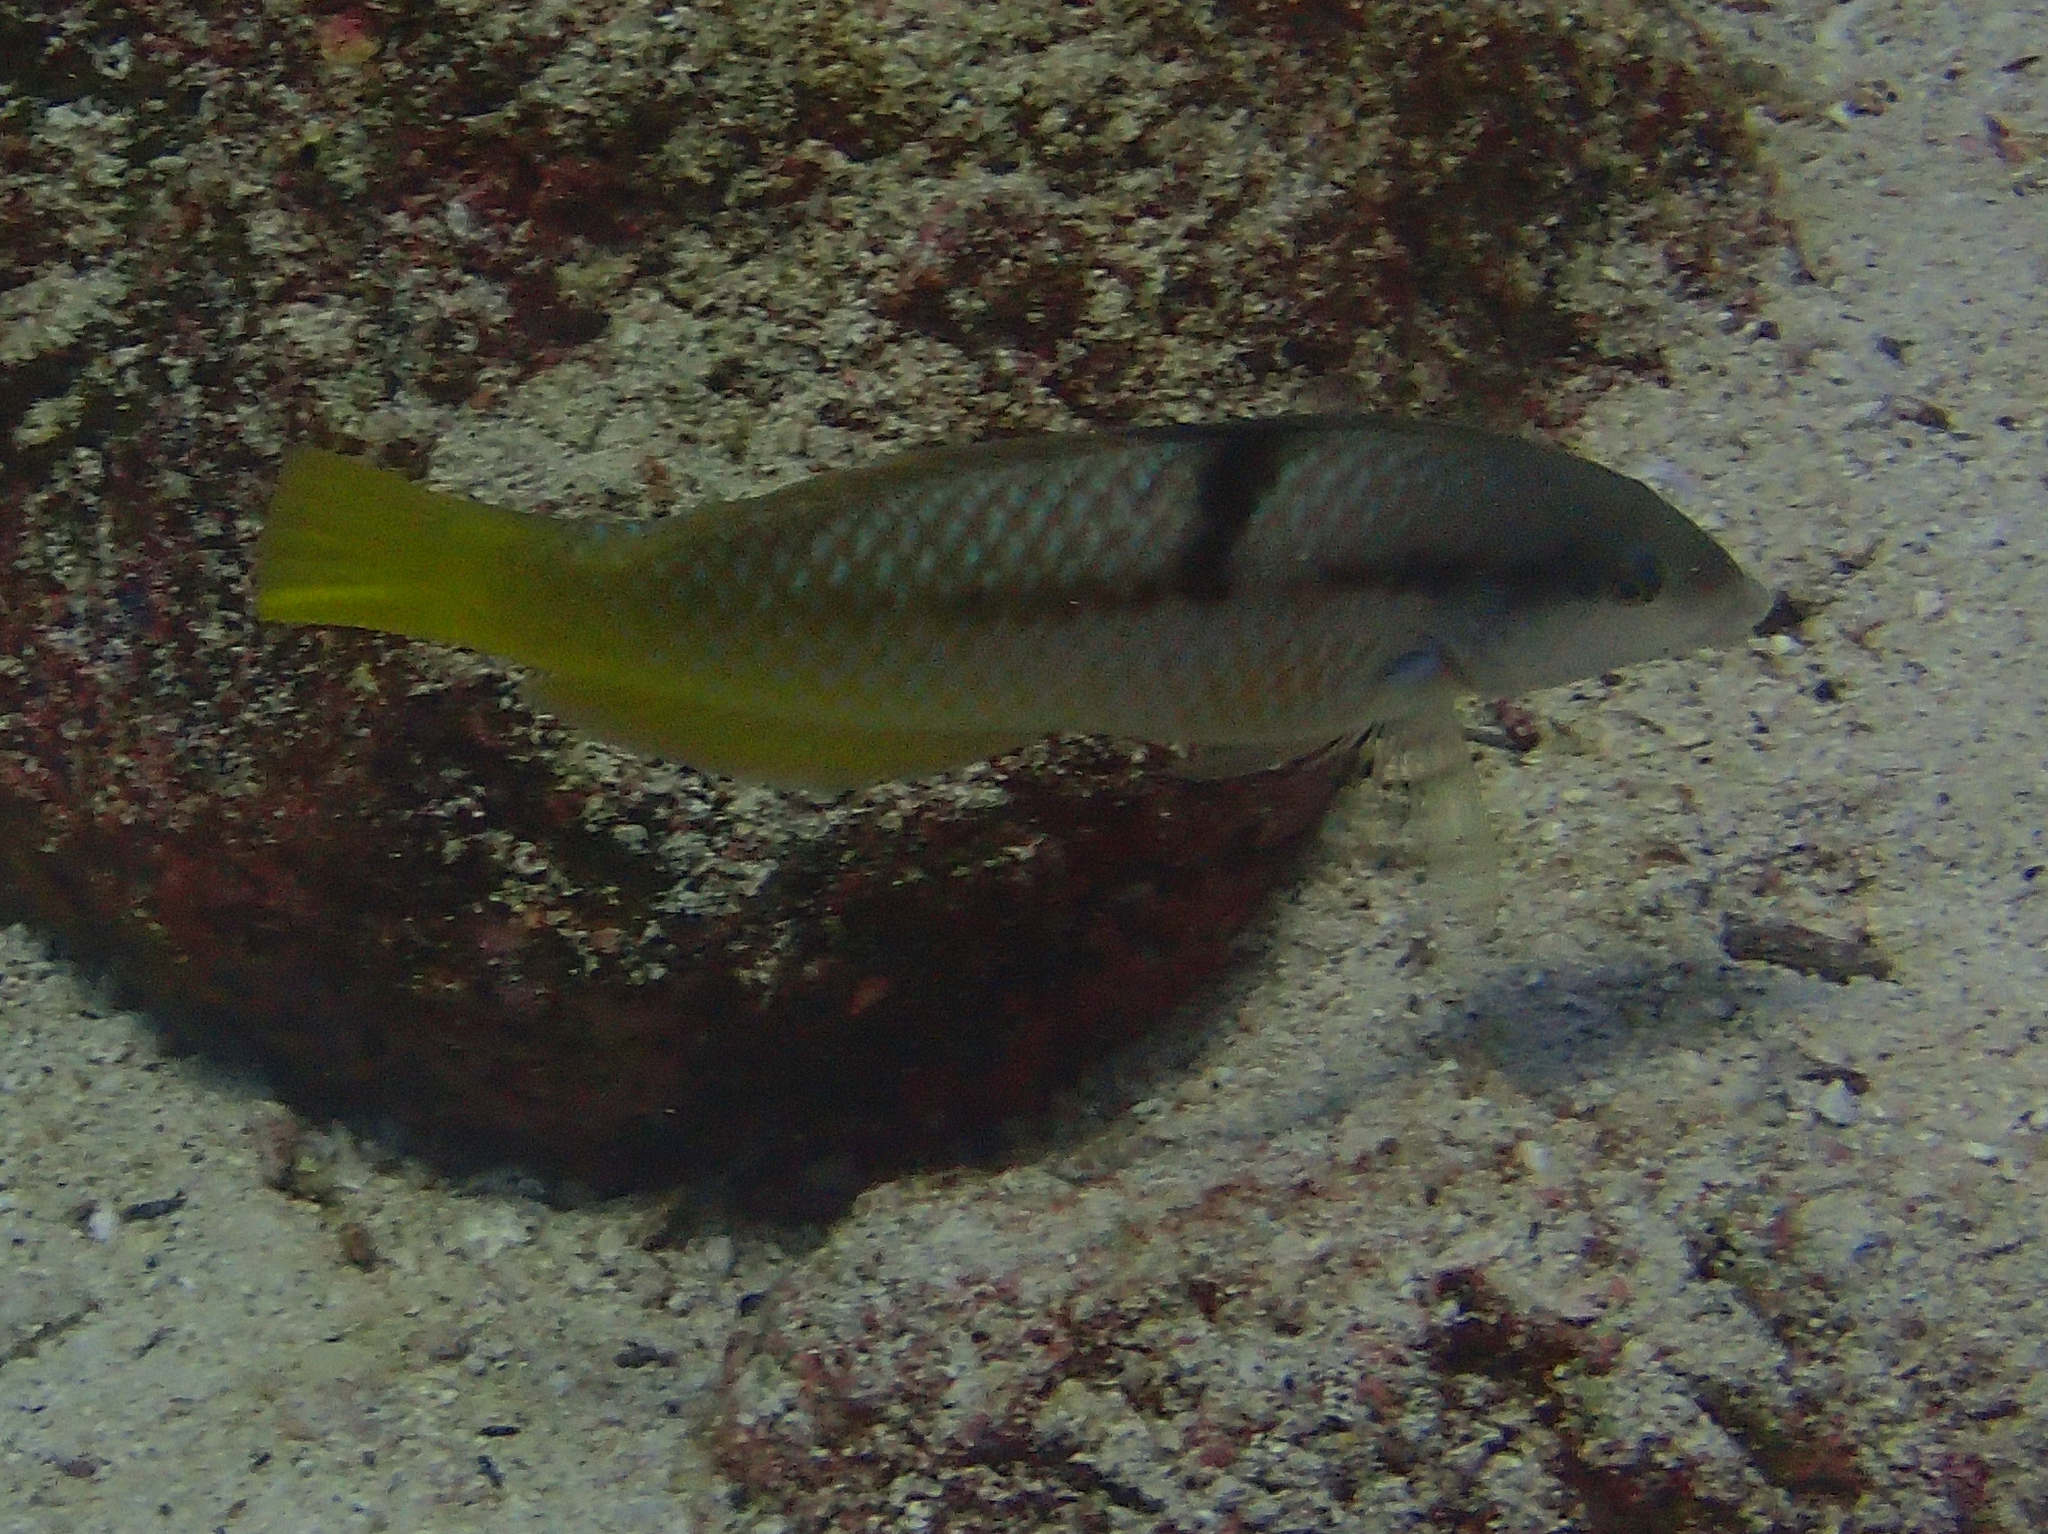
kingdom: Animalia
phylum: Chordata
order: Perciformes
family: Labridae
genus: Halichoeres
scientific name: Halichoeres nicholsi
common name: Spinster wrasse
